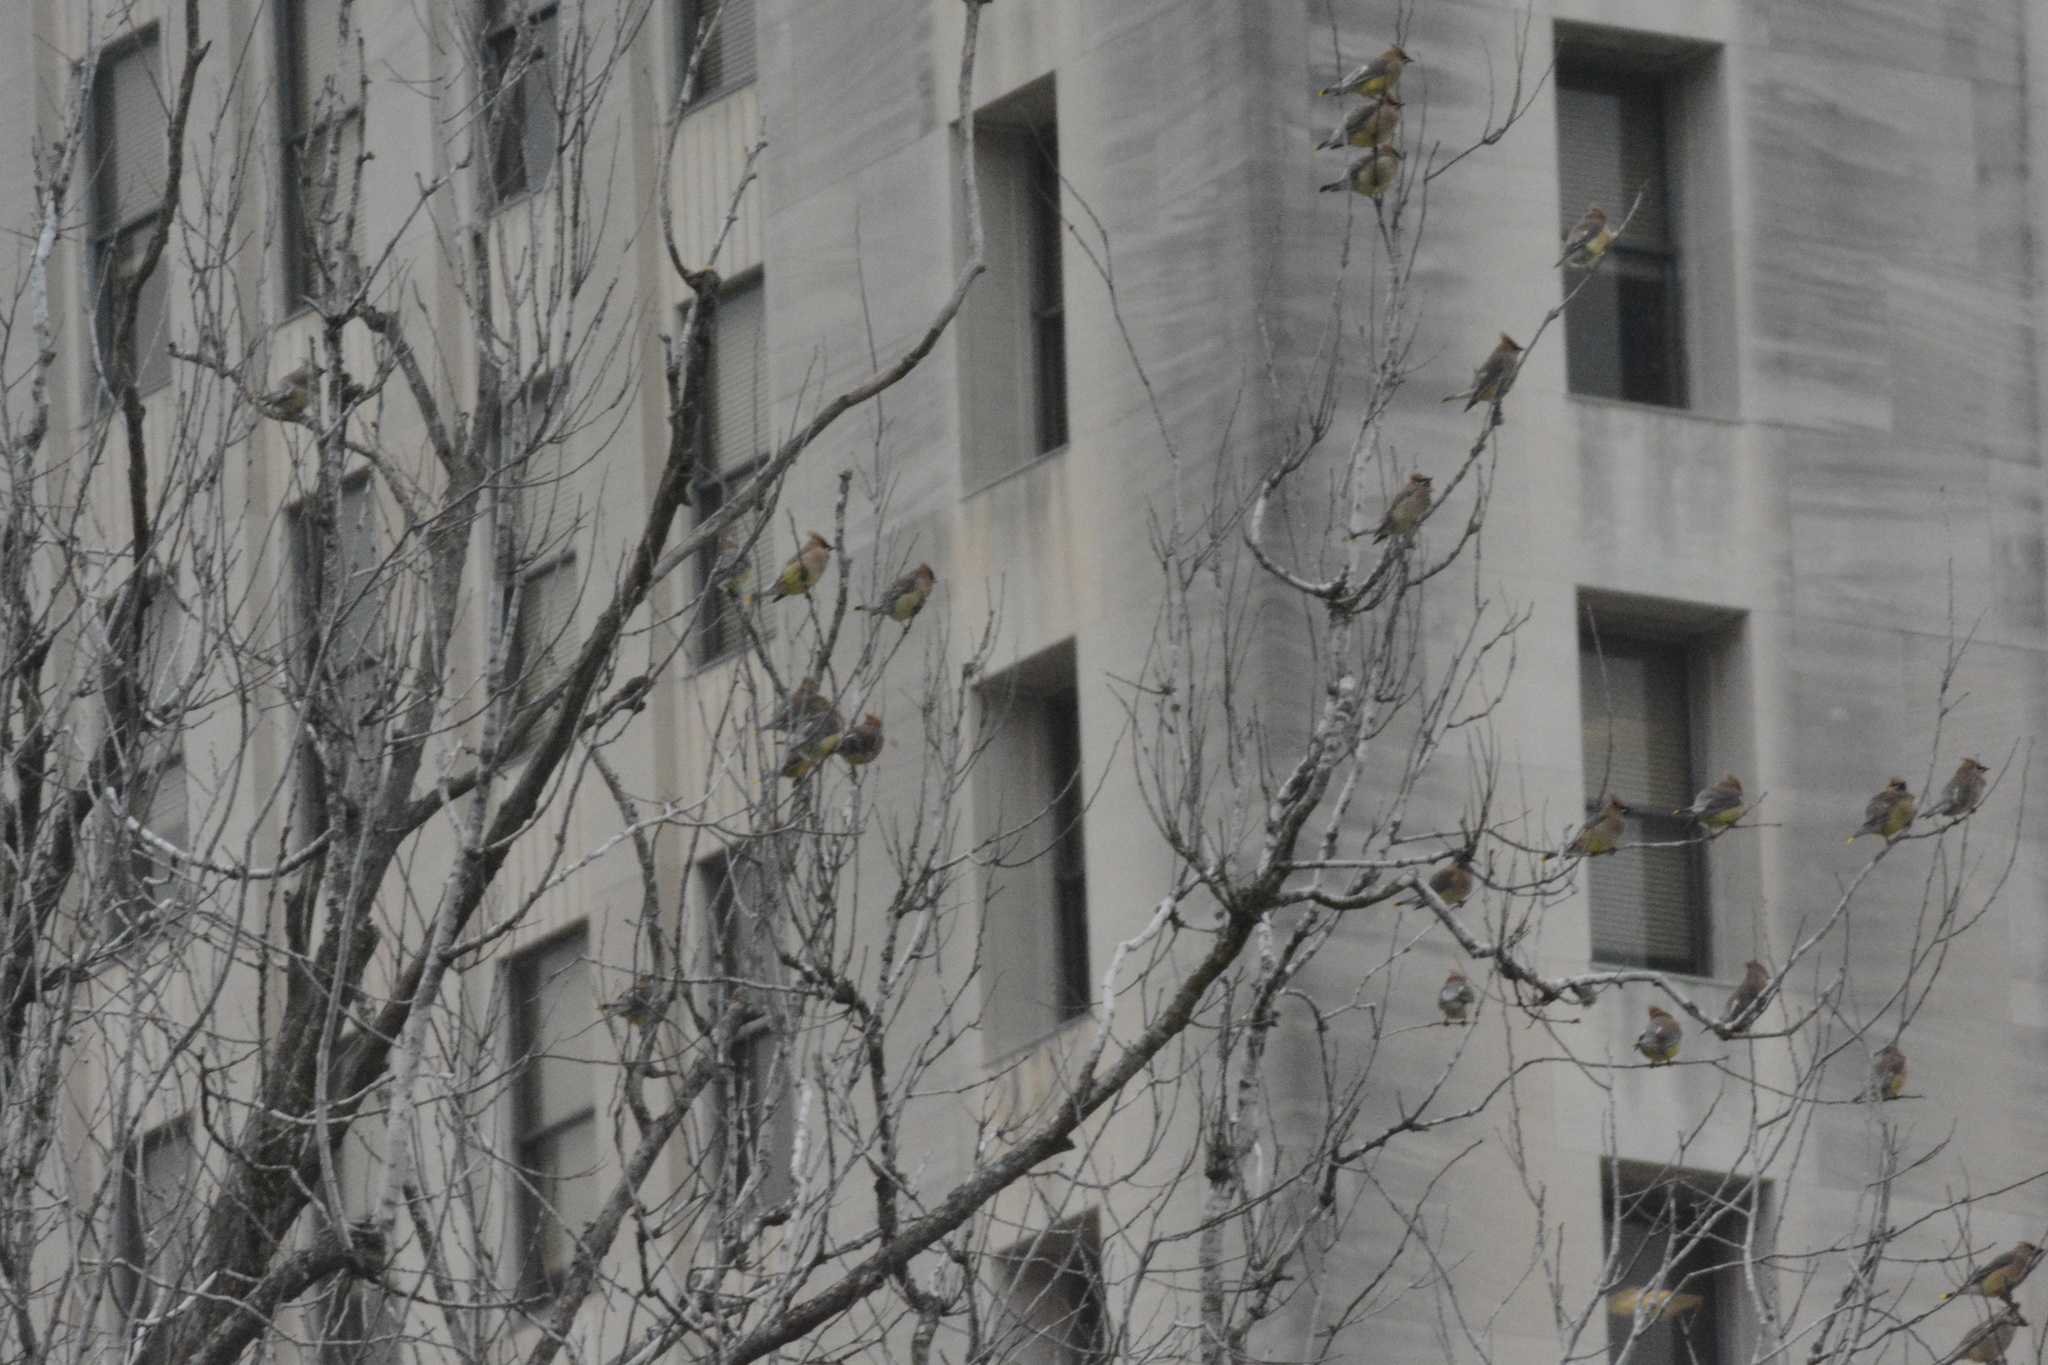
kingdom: Animalia
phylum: Chordata
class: Aves
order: Passeriformes
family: Bombycillidae
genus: Bombycilla
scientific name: Bombycilla cedrorum
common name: Cedar waxwing
